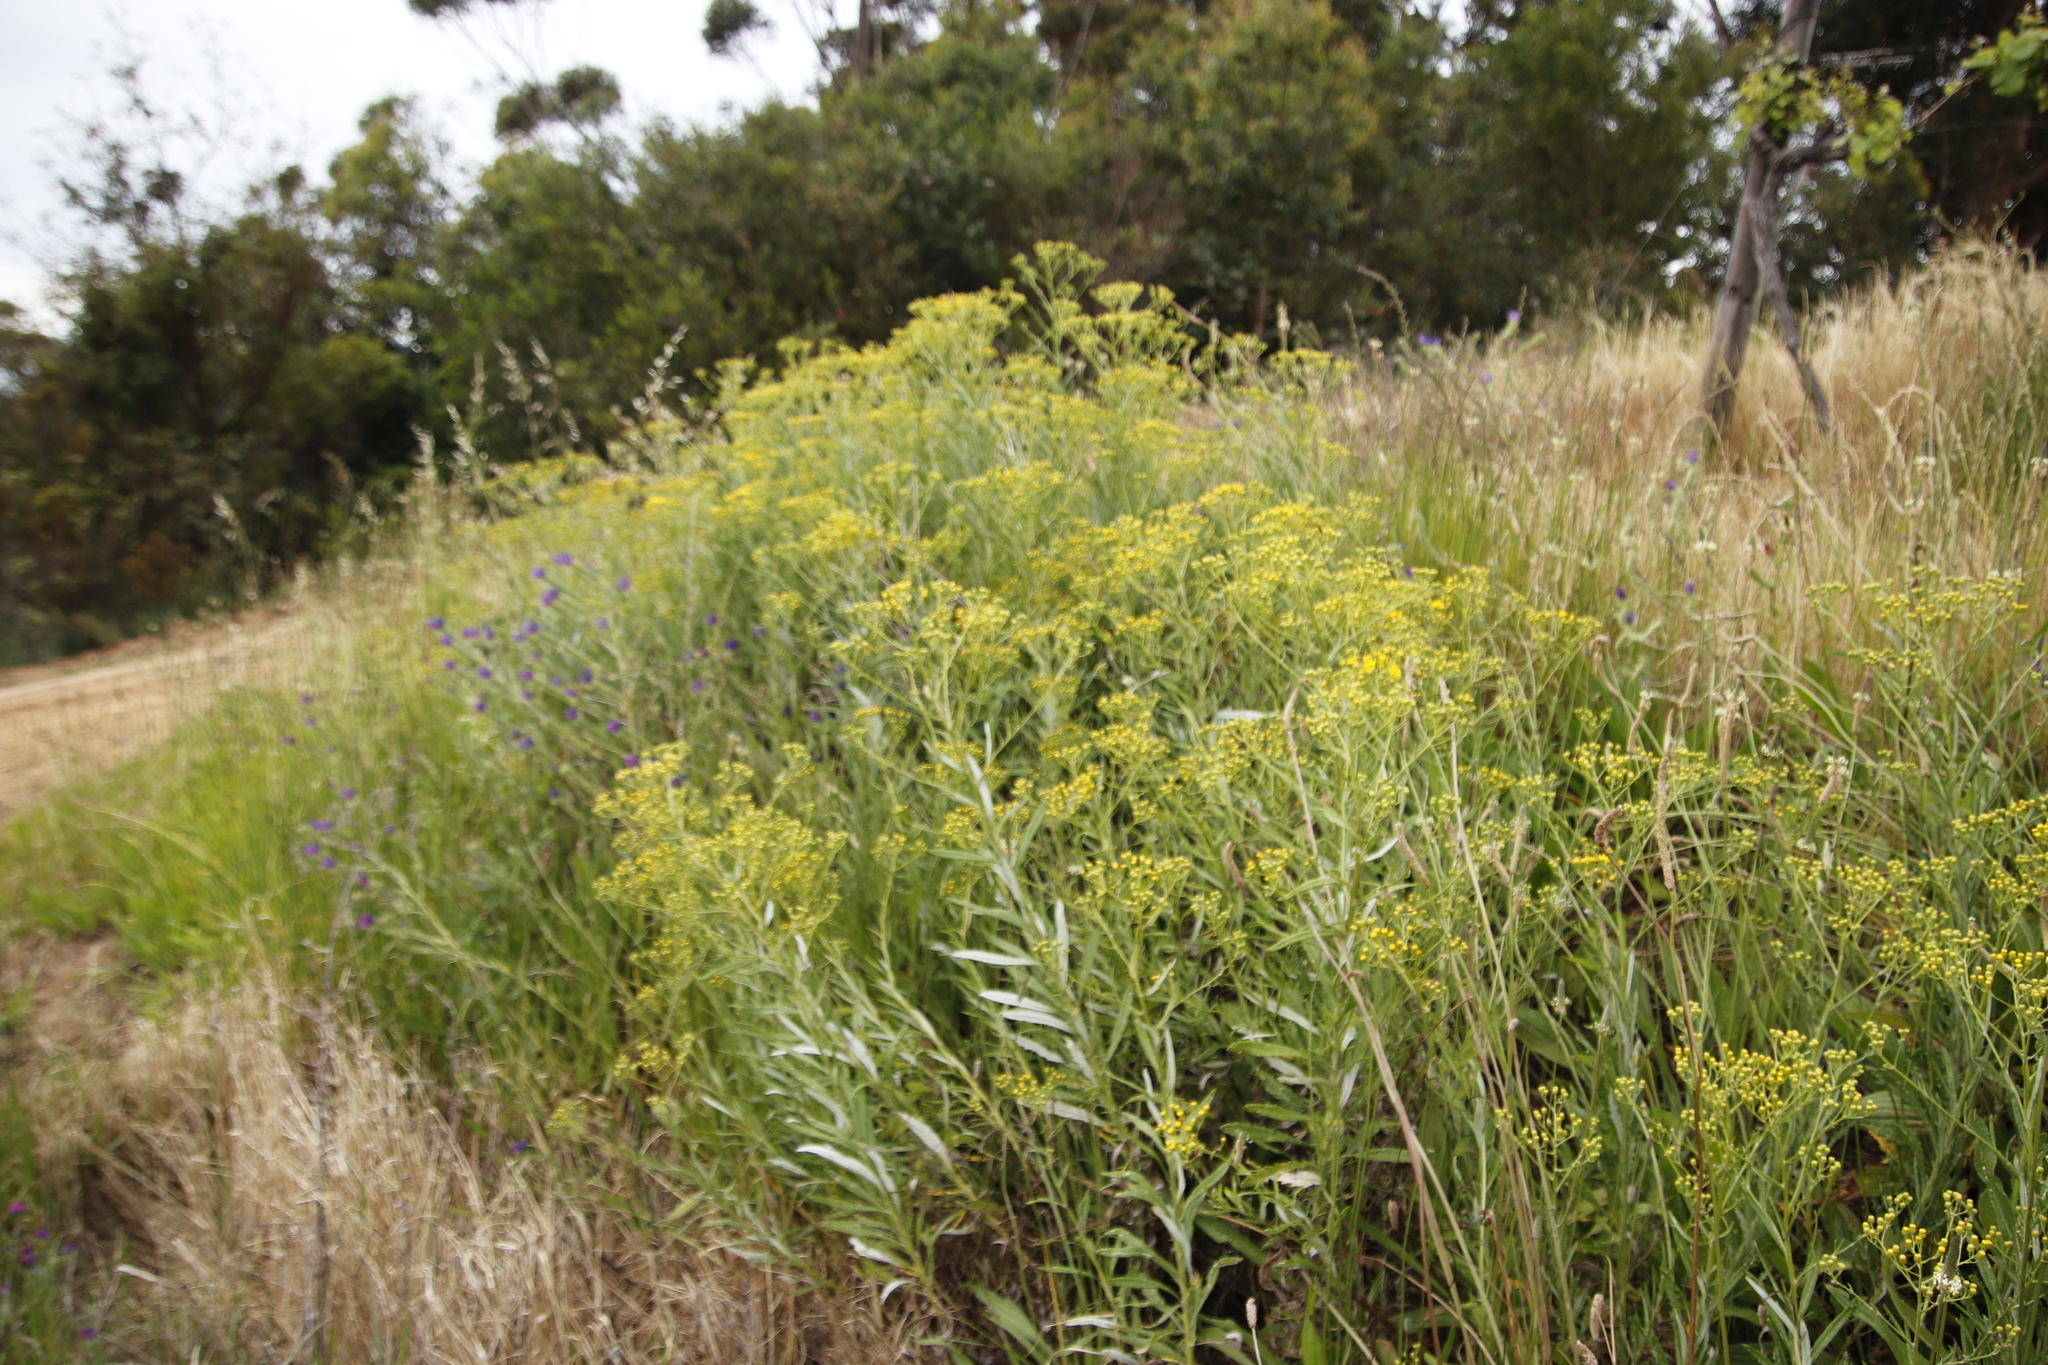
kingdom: Plantae
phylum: Tracheophyta
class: Magnoliopsida
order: Asterales
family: Asteraceae
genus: Senecio
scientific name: Senecio pterophorus
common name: Shoddy ragwort
